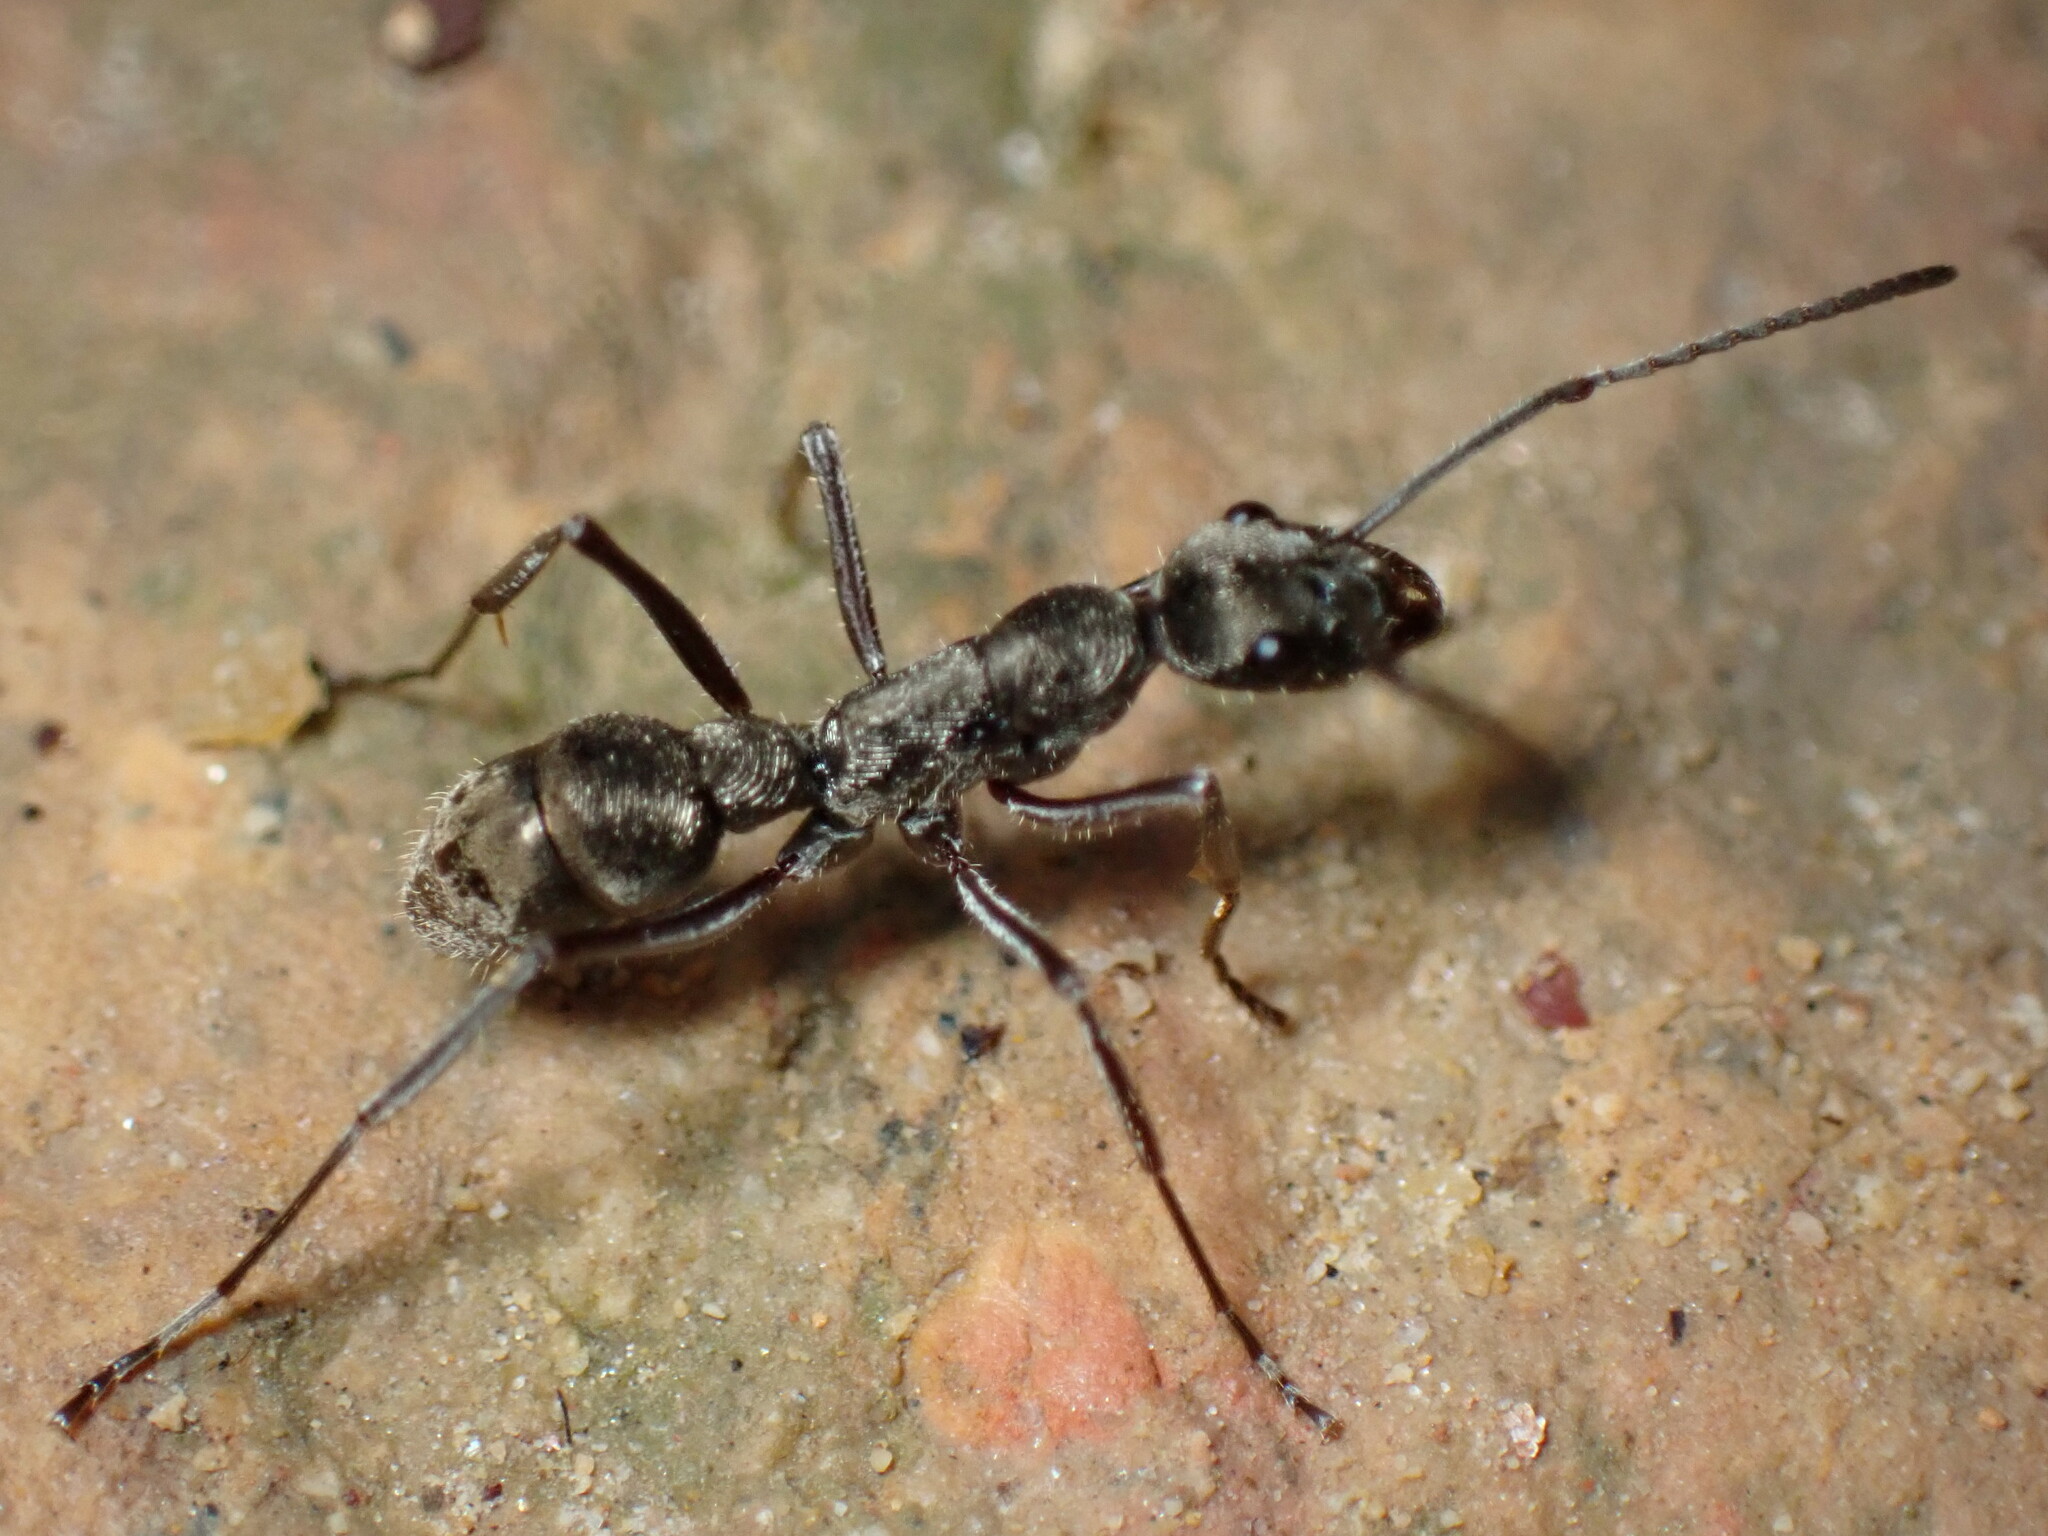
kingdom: Animalia
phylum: Arthropoda
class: Insecta
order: Hymenoptera
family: Formicidae
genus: Diacamma
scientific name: Diacamma rugosum
